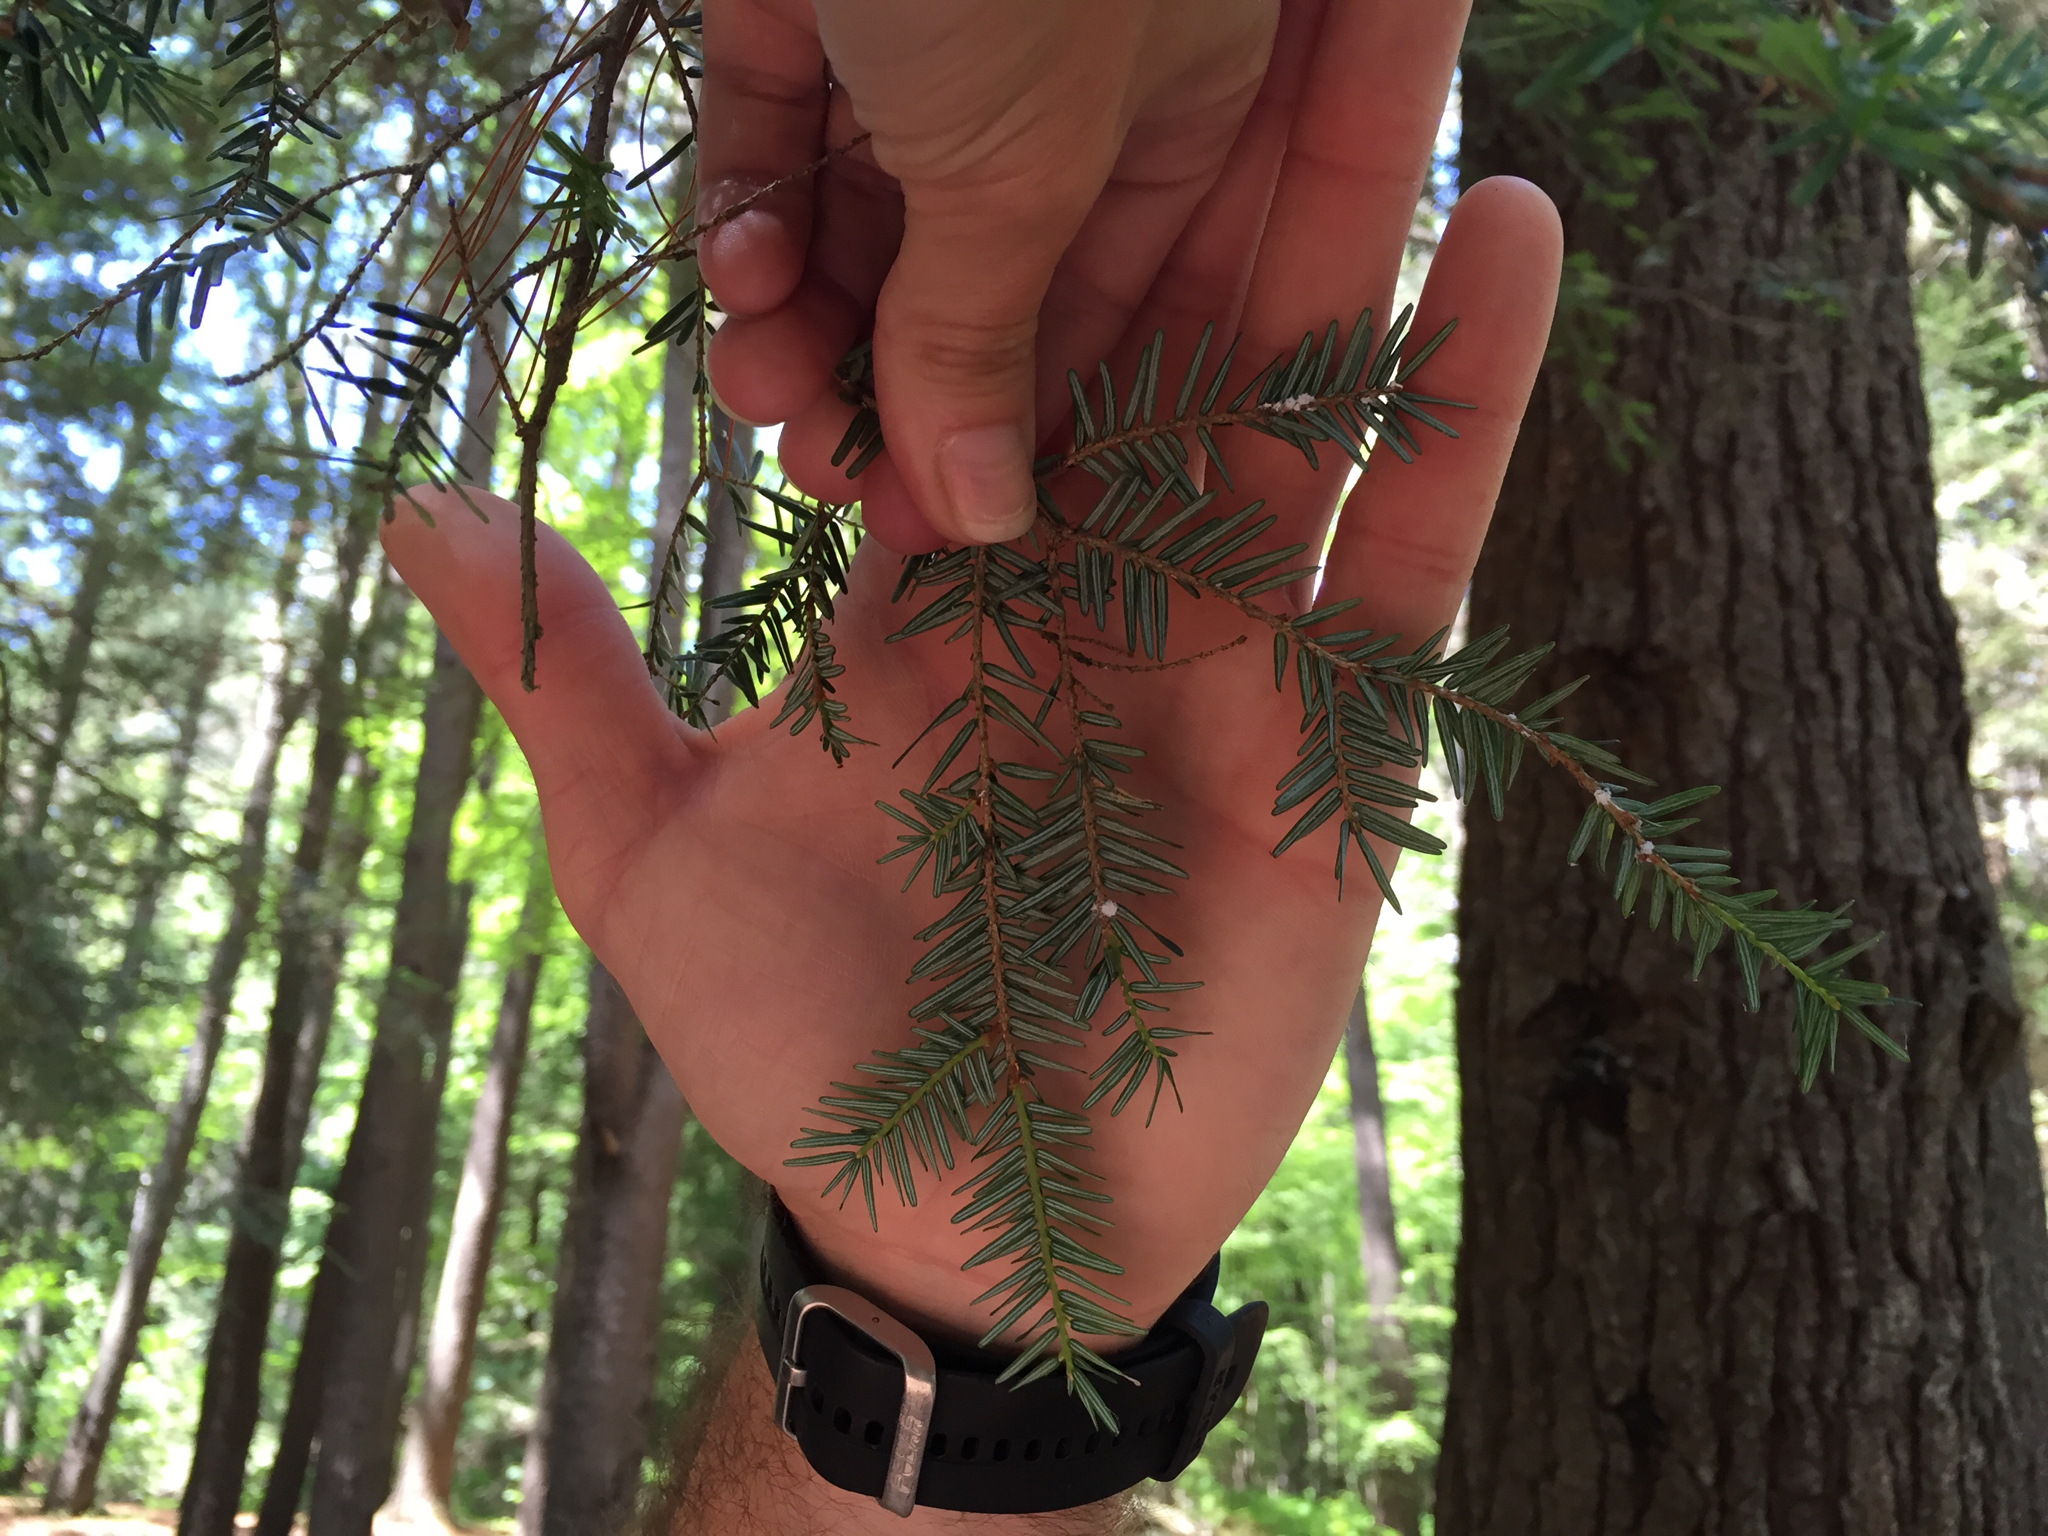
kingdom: Animalia
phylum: Arthropoda
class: Insecta
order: Hemiptera
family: Adelgidae
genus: Adelges
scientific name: Adelges tsugae
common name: Hemlock woolly adelgid
